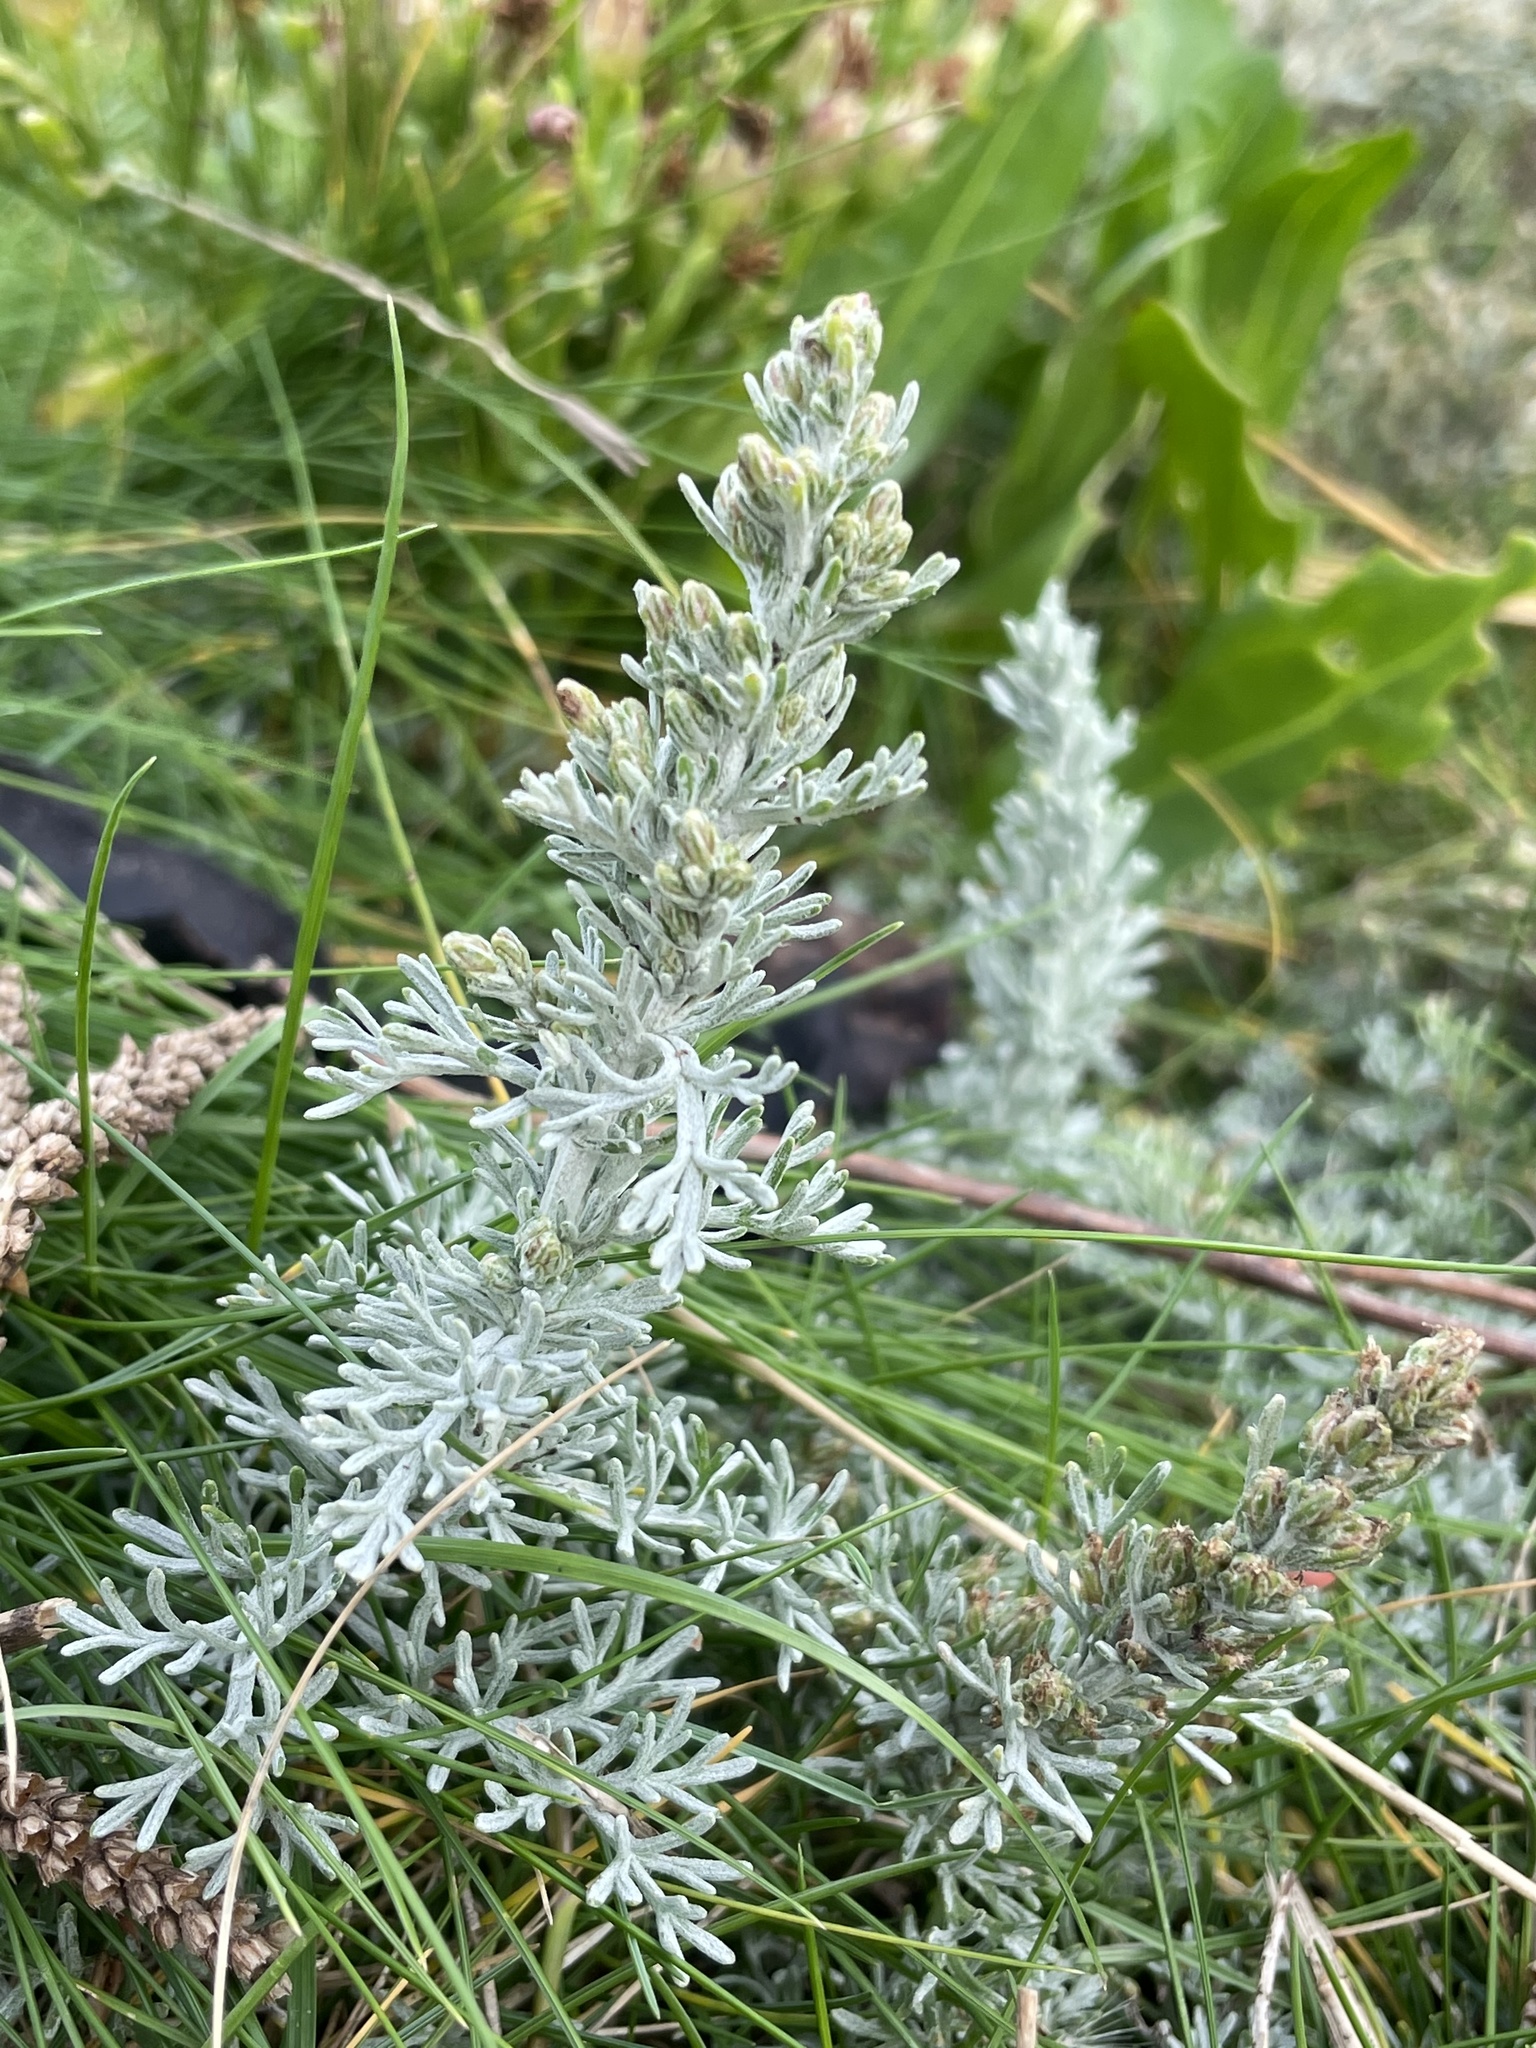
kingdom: Plantae
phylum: Tracheophyta
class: Magnoliopsida
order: Asterales
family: Asteraceae
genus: Artemisia
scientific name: Artemisia maritima
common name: Wormseed
